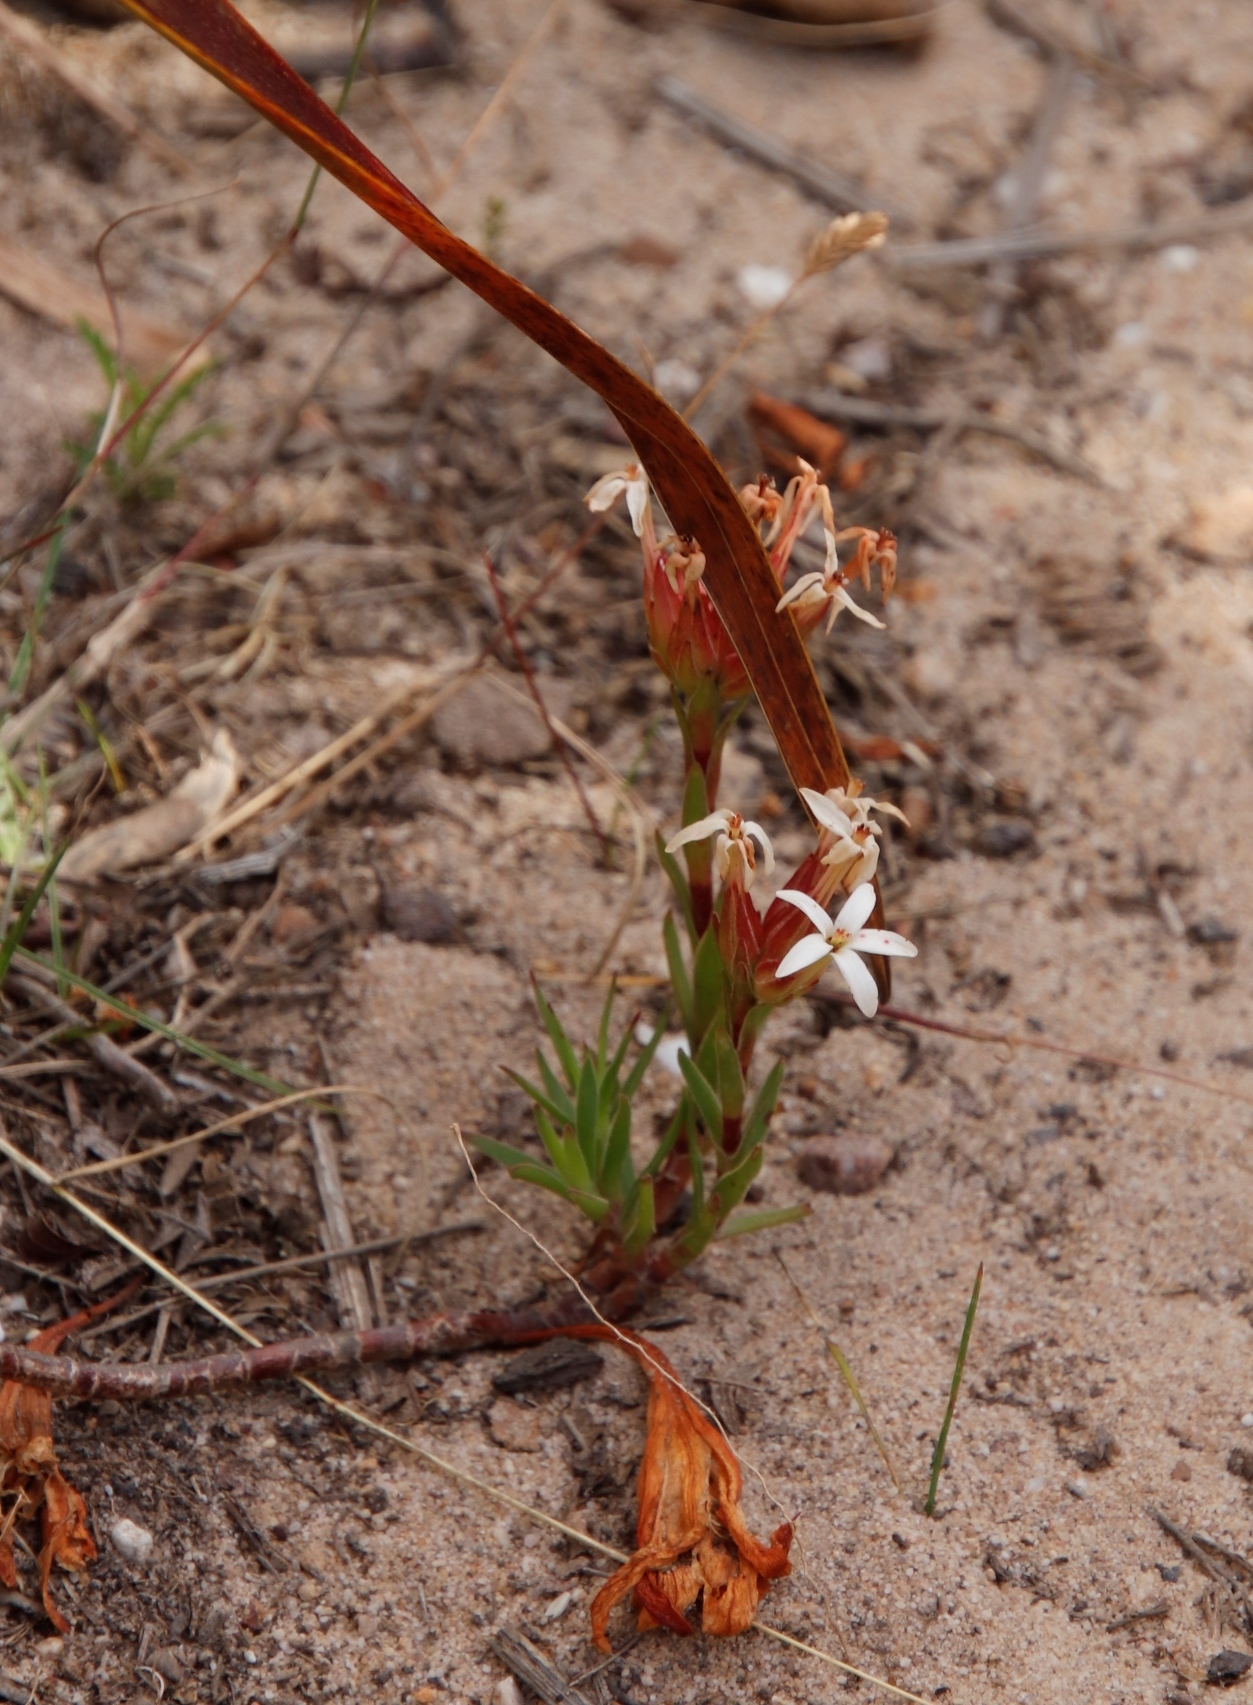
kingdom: Plantae
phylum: Tracheophyta
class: Magnoliopsida
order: Saxifragales
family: Crassulaceae
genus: Crassula
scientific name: Crassula fascicularis
